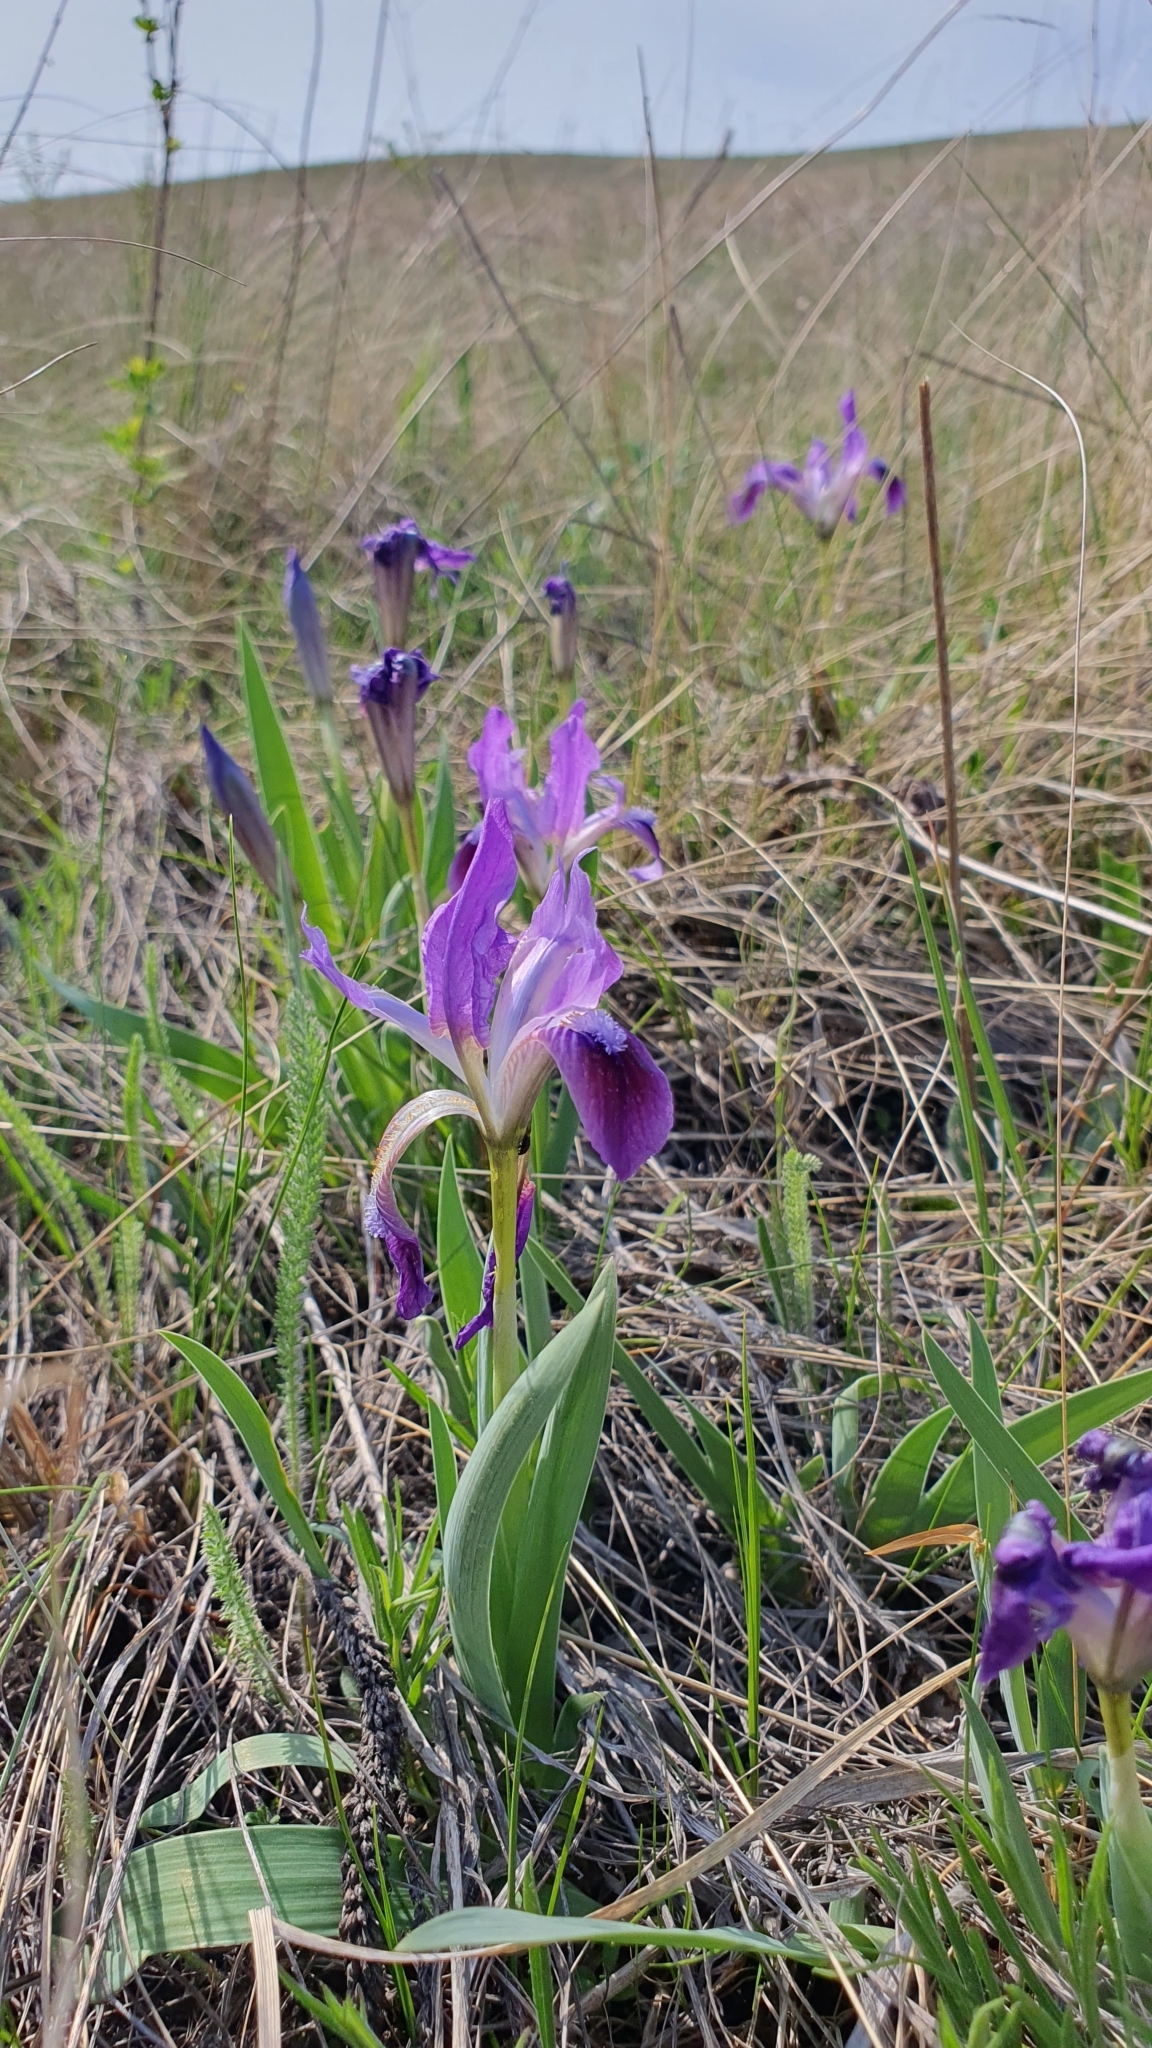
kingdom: Plantae
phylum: Tracheophyta
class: Liliopsida
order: Asparagales
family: Iridaceae
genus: Iris
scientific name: Iris pumila
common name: Dwarf iris
